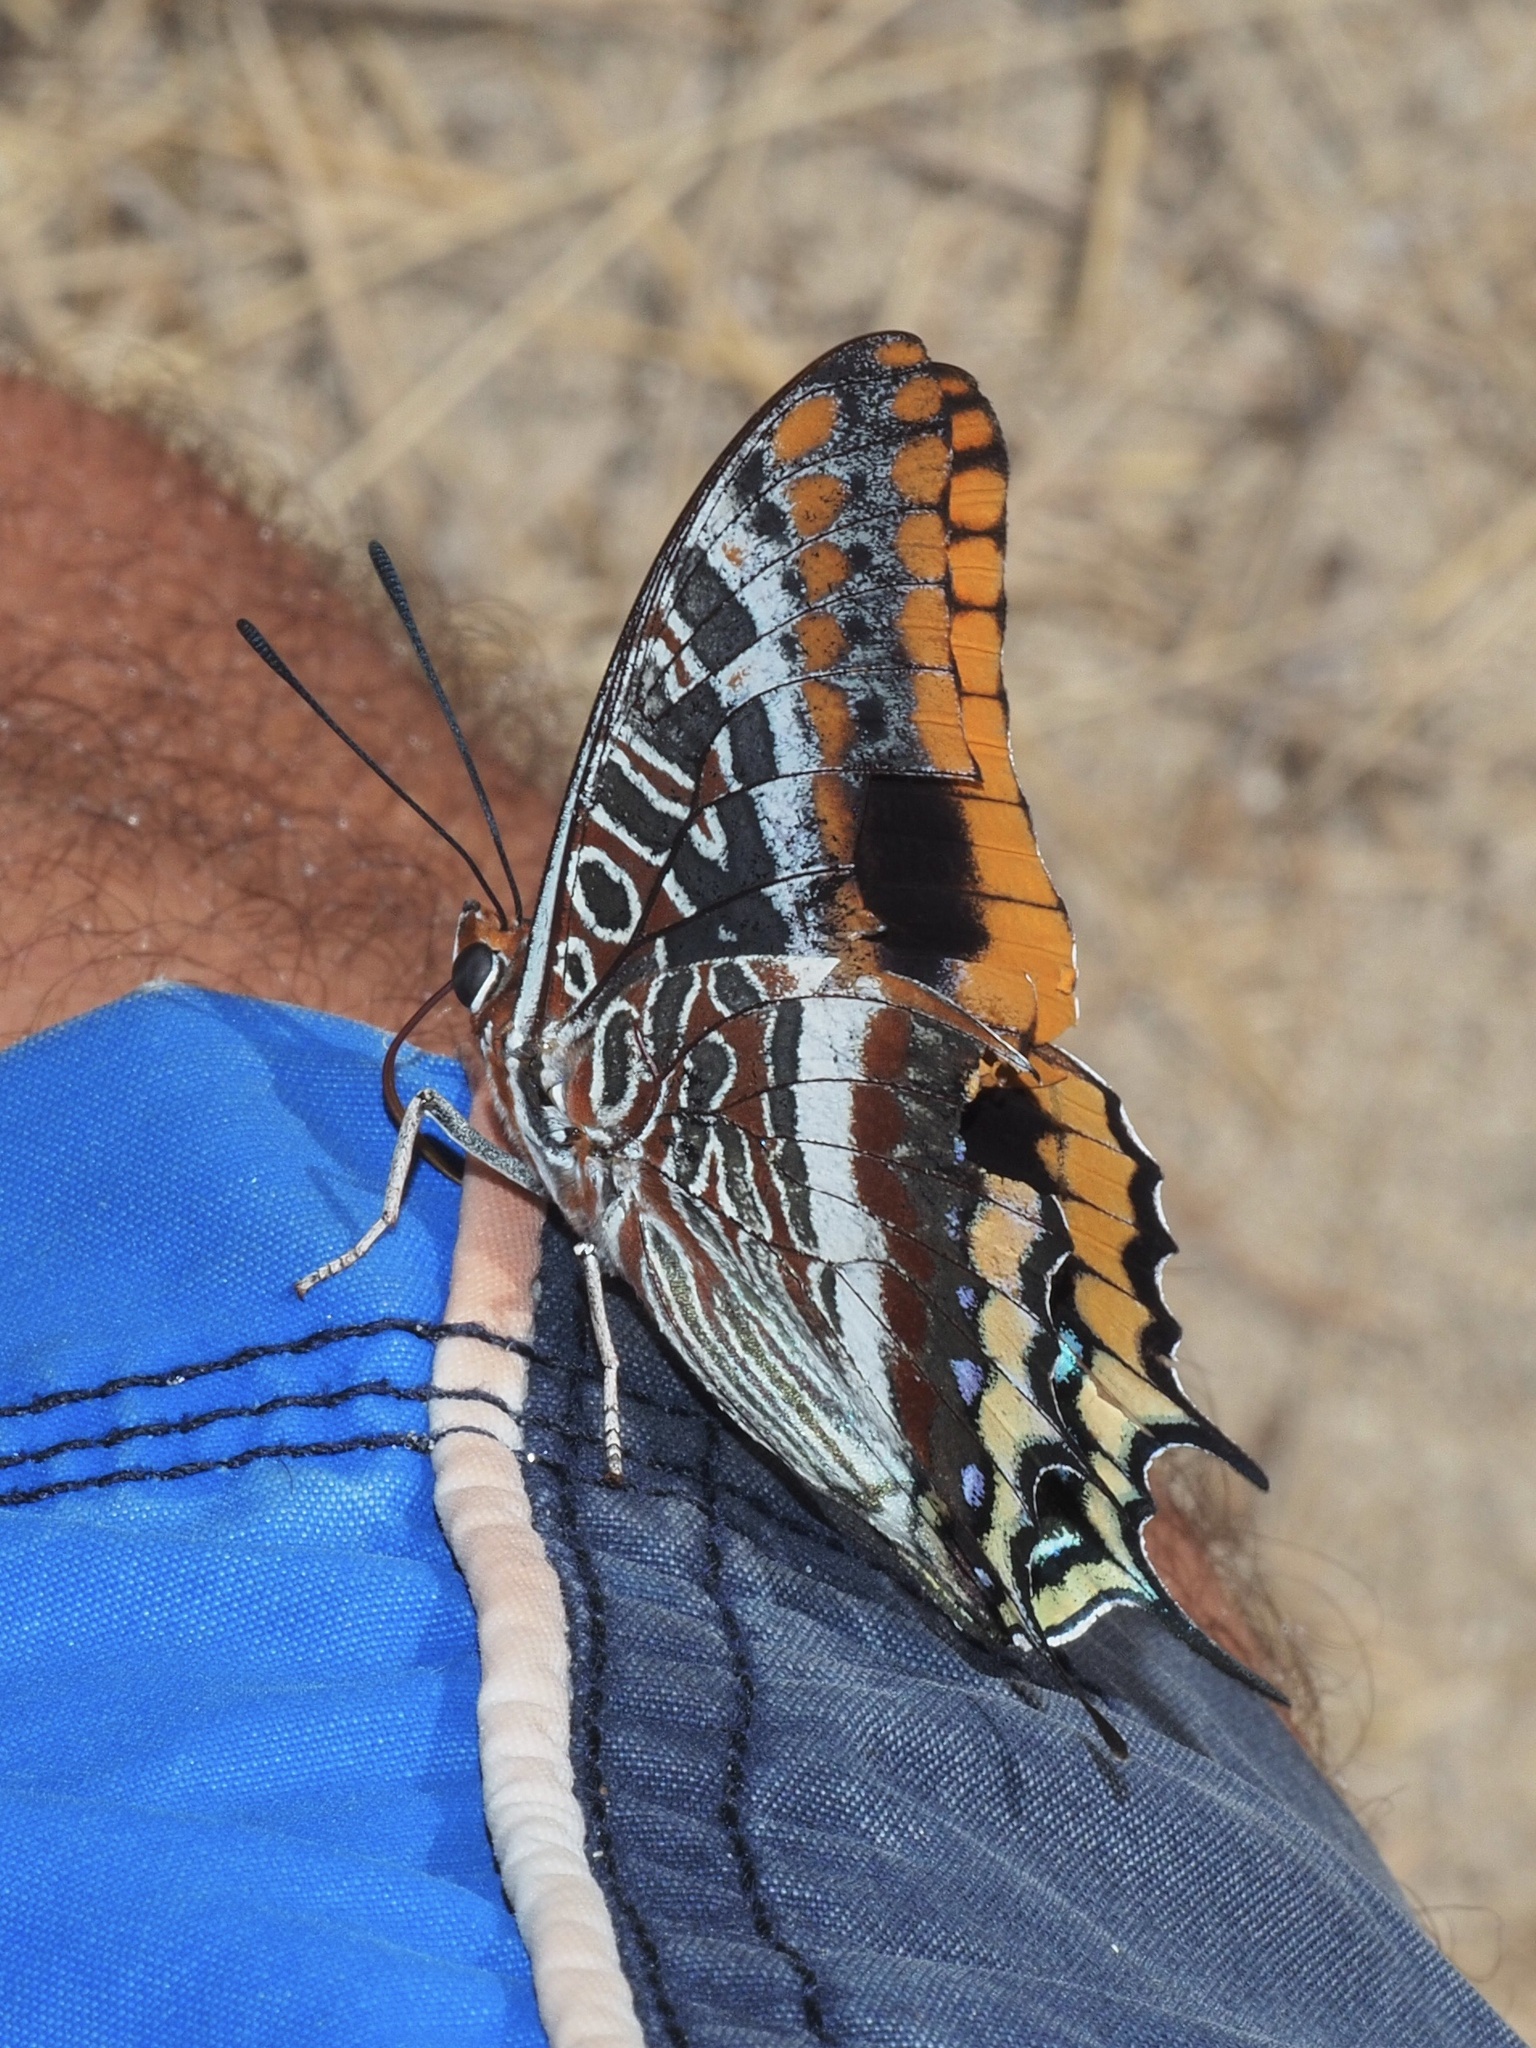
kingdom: Animalia
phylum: Arthropoda
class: Insecta
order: Lepidoptera
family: Nymphalidae
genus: Charaxes
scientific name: Charaxes jasius
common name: Two tailed pasha
